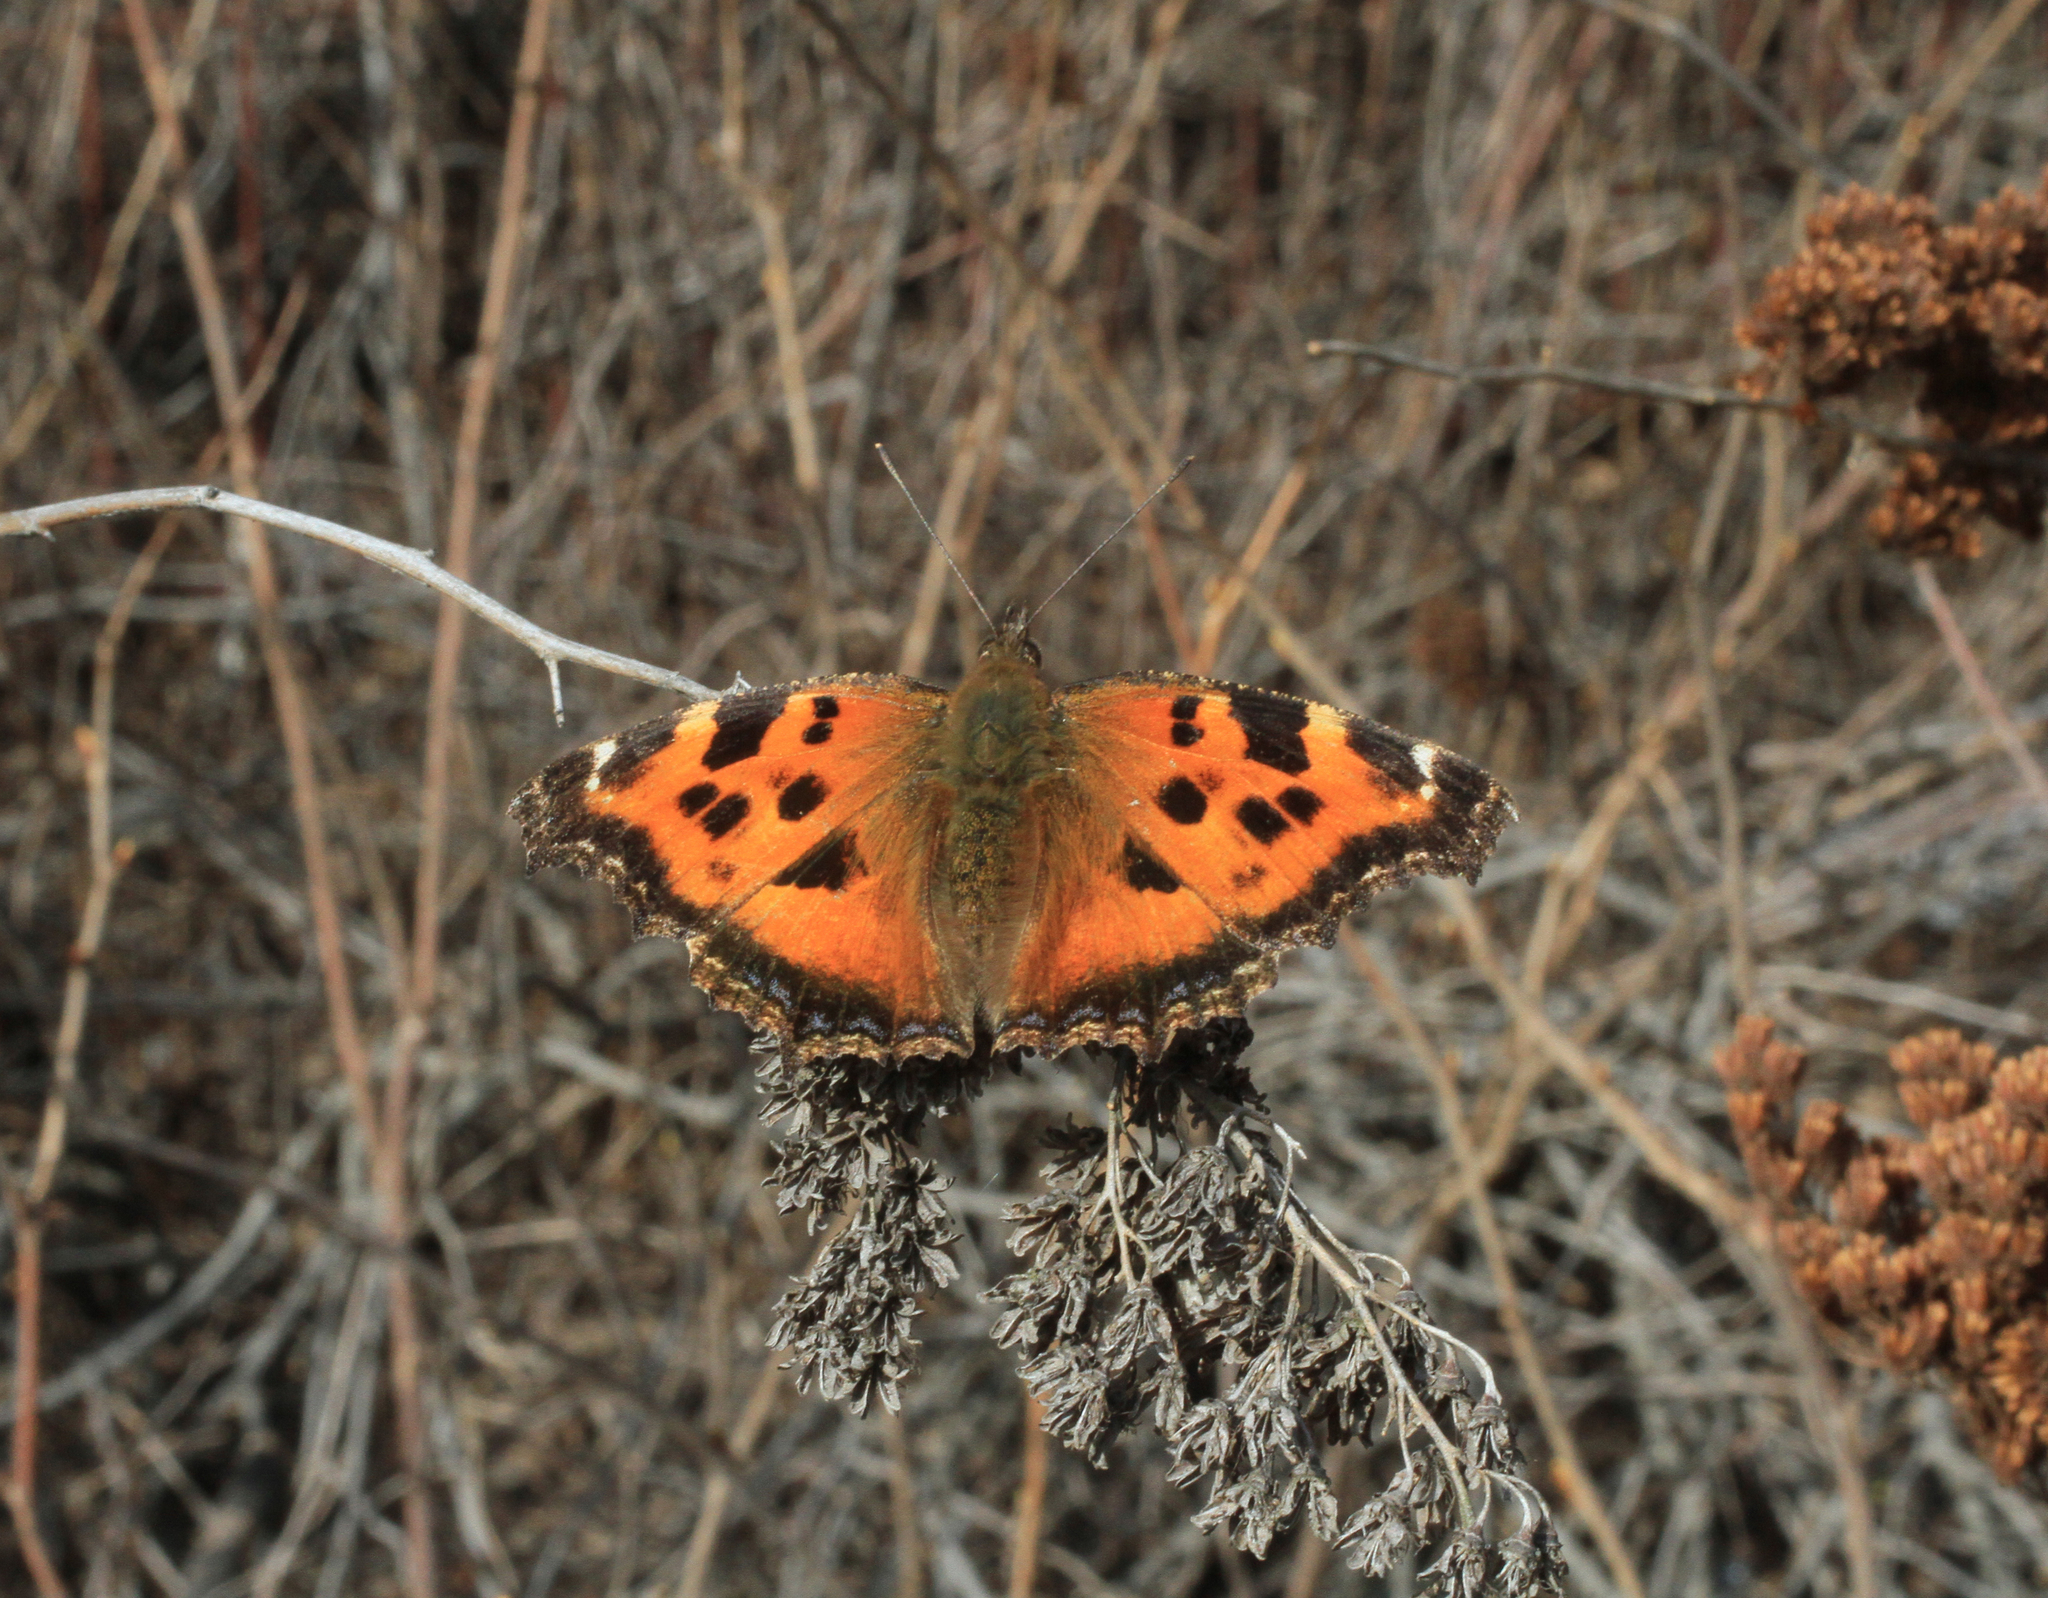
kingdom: Animalia
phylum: Arthropoda
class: Insecta
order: Lepidoptera
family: Nymphalidae
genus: Nymphalis
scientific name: Nymphalis xanthomelas
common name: Scarce tortoiseshell
